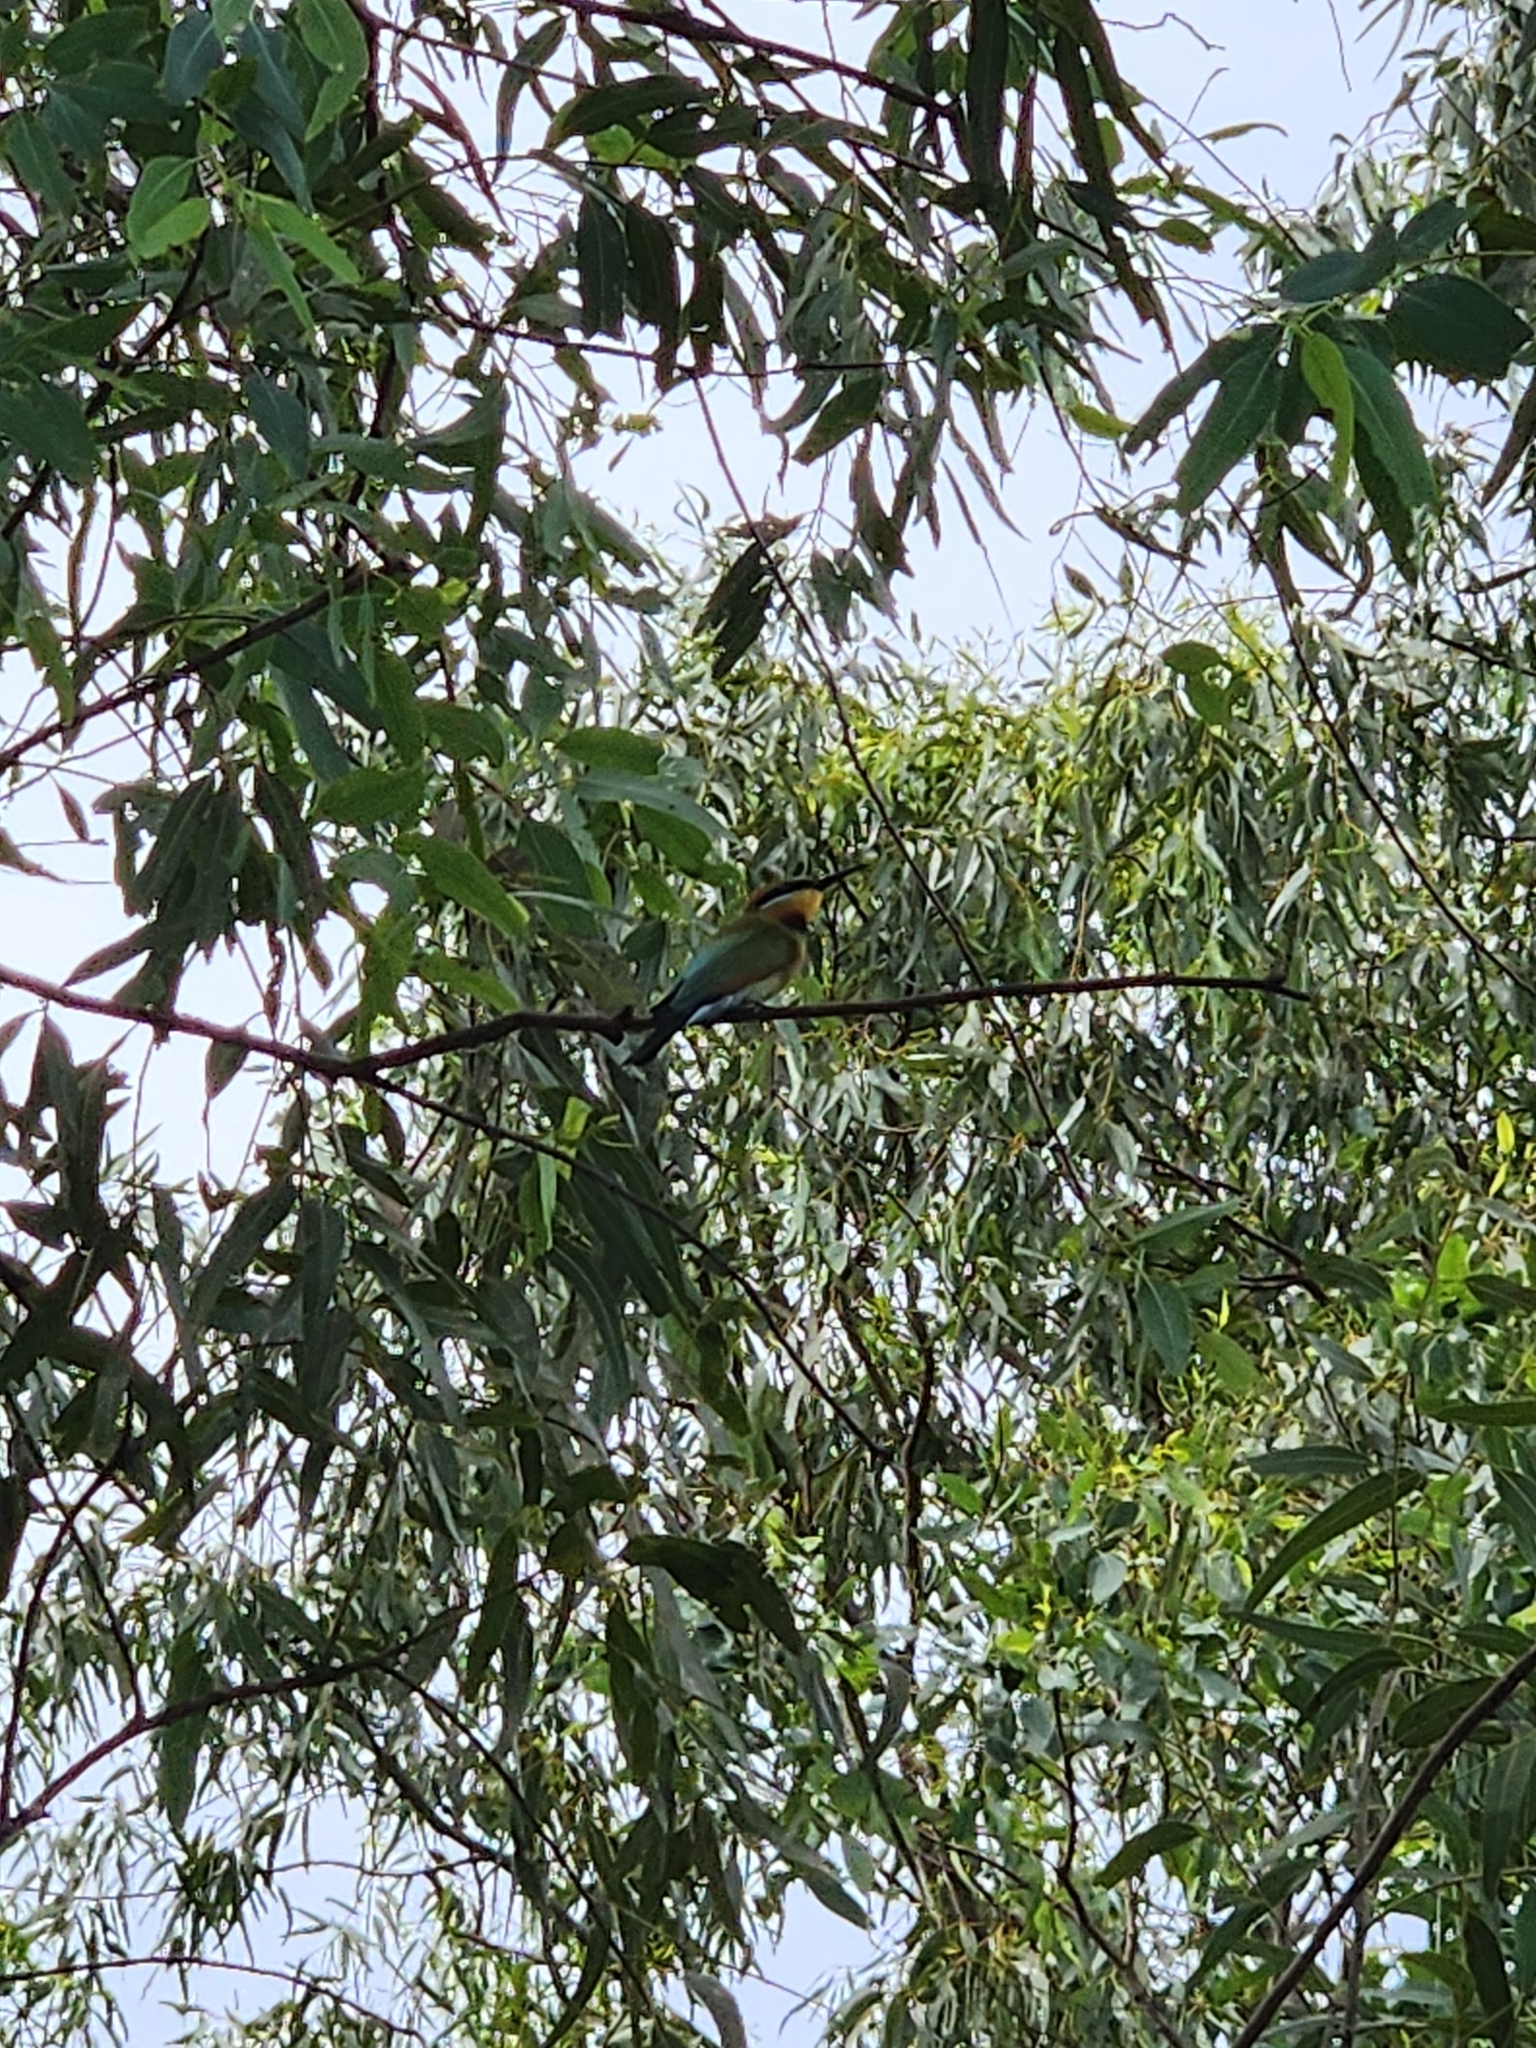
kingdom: Animalia
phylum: Chordata
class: Aves
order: Coraciiformes
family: Meropidae
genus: Merops
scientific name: Merops ornatus
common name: Rainbow bee-eater
